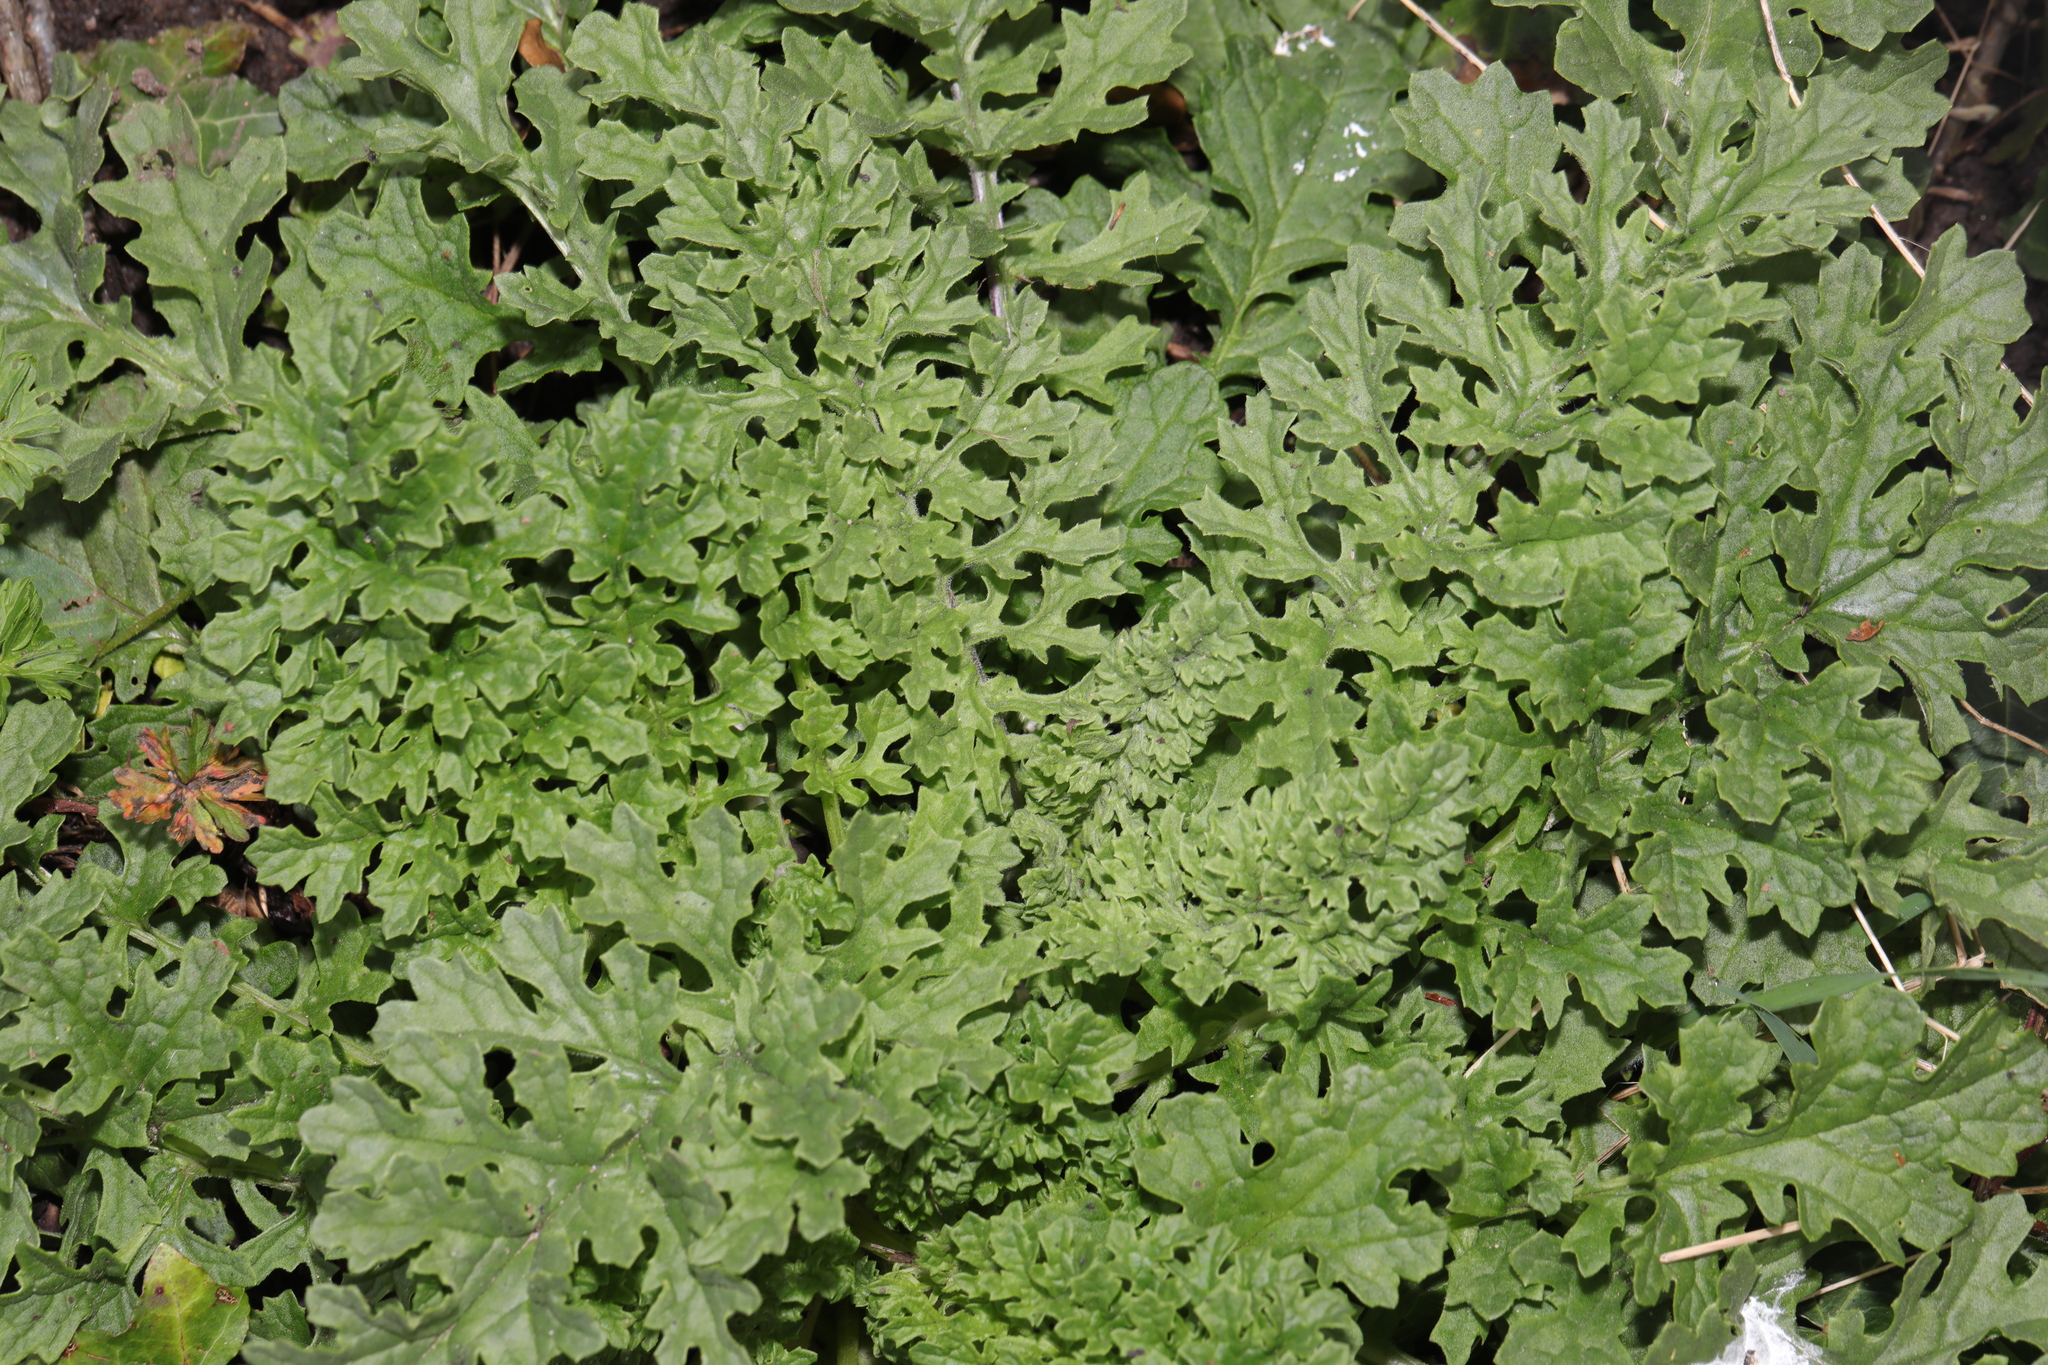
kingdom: Plantae
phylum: Tracheophyta
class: Magnoliopsida
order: Asterales
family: Asteraceae
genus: Jacobaea
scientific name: Jacobaea vulgaris
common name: Stinking willie
